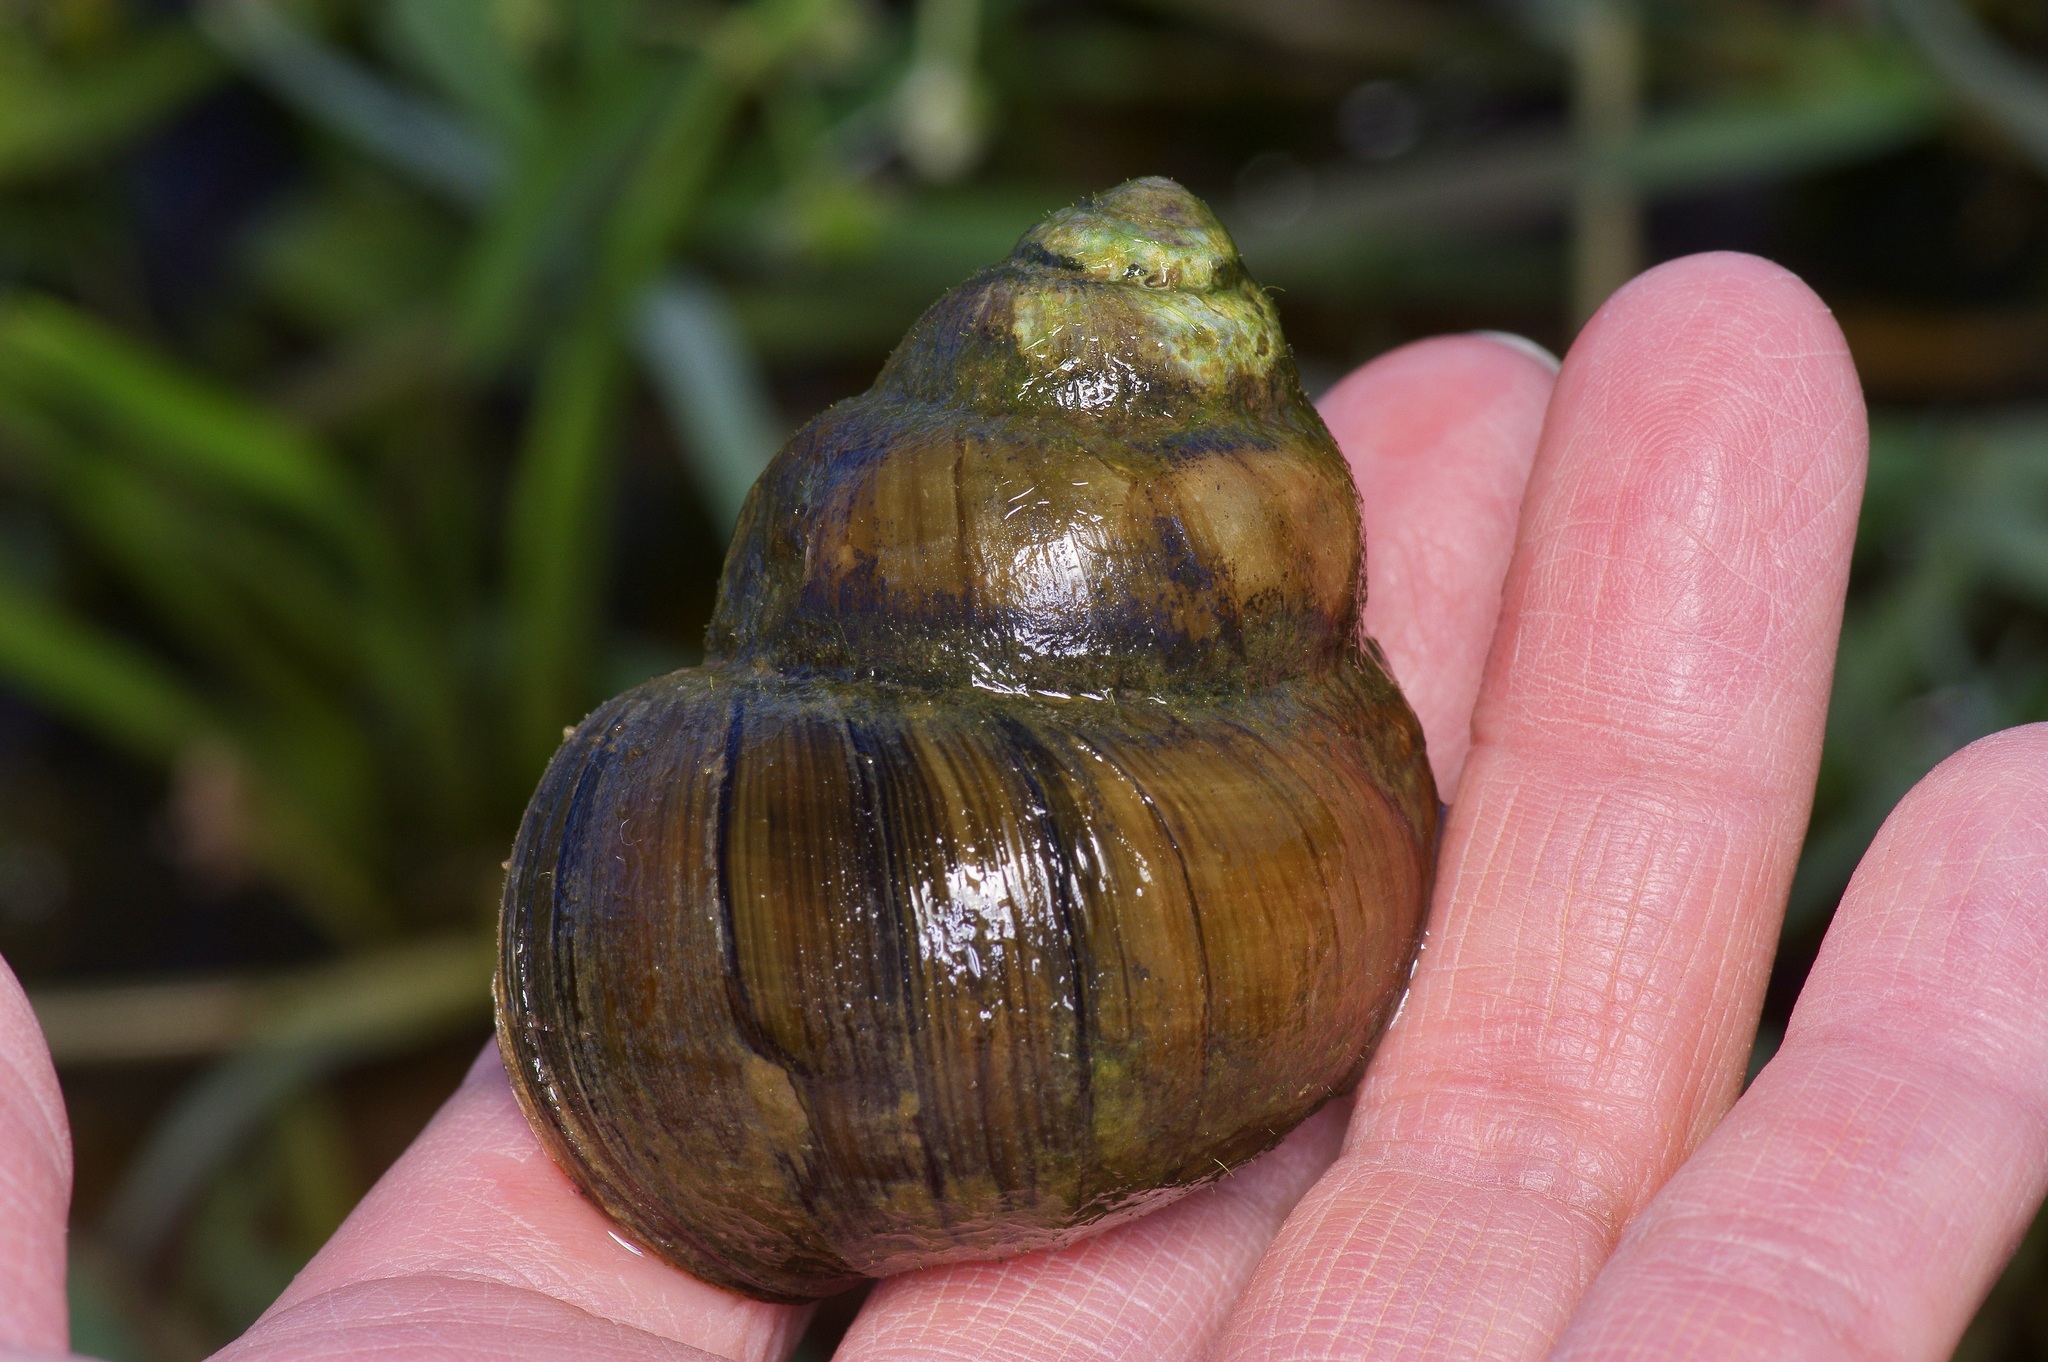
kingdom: Animalia
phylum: Mollusca
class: Gastropoda
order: Architaenioglossa
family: Viviparidae
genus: Cipangopaludina
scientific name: Cipangopaludina chinensis
